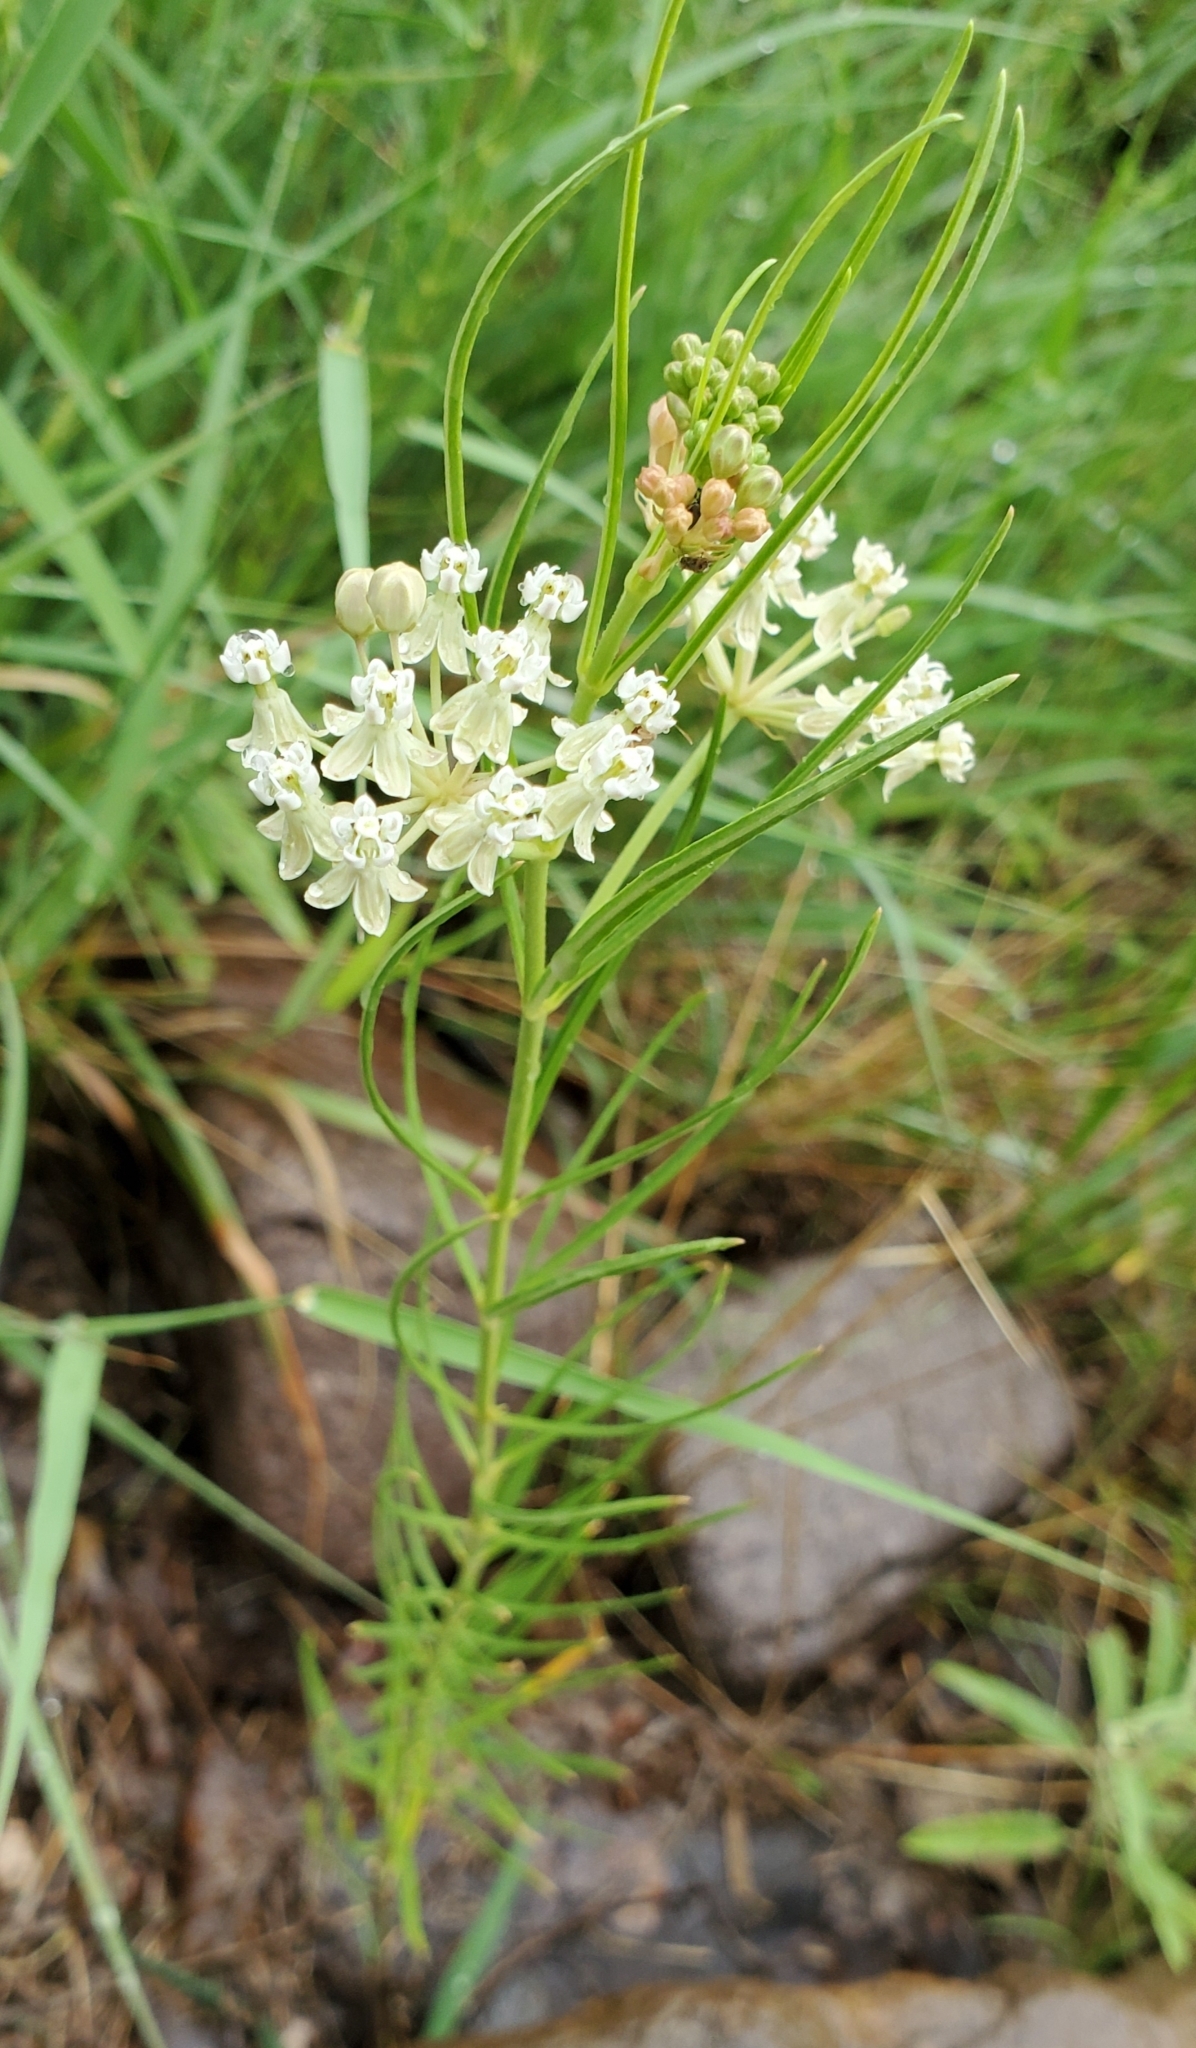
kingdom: Plantae
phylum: Tracheophyta
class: Magnoliopsida
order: Gentianales
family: Apocynaceae
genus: Asclepias
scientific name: Asclepias subverticillata
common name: Horsetail milkweed
